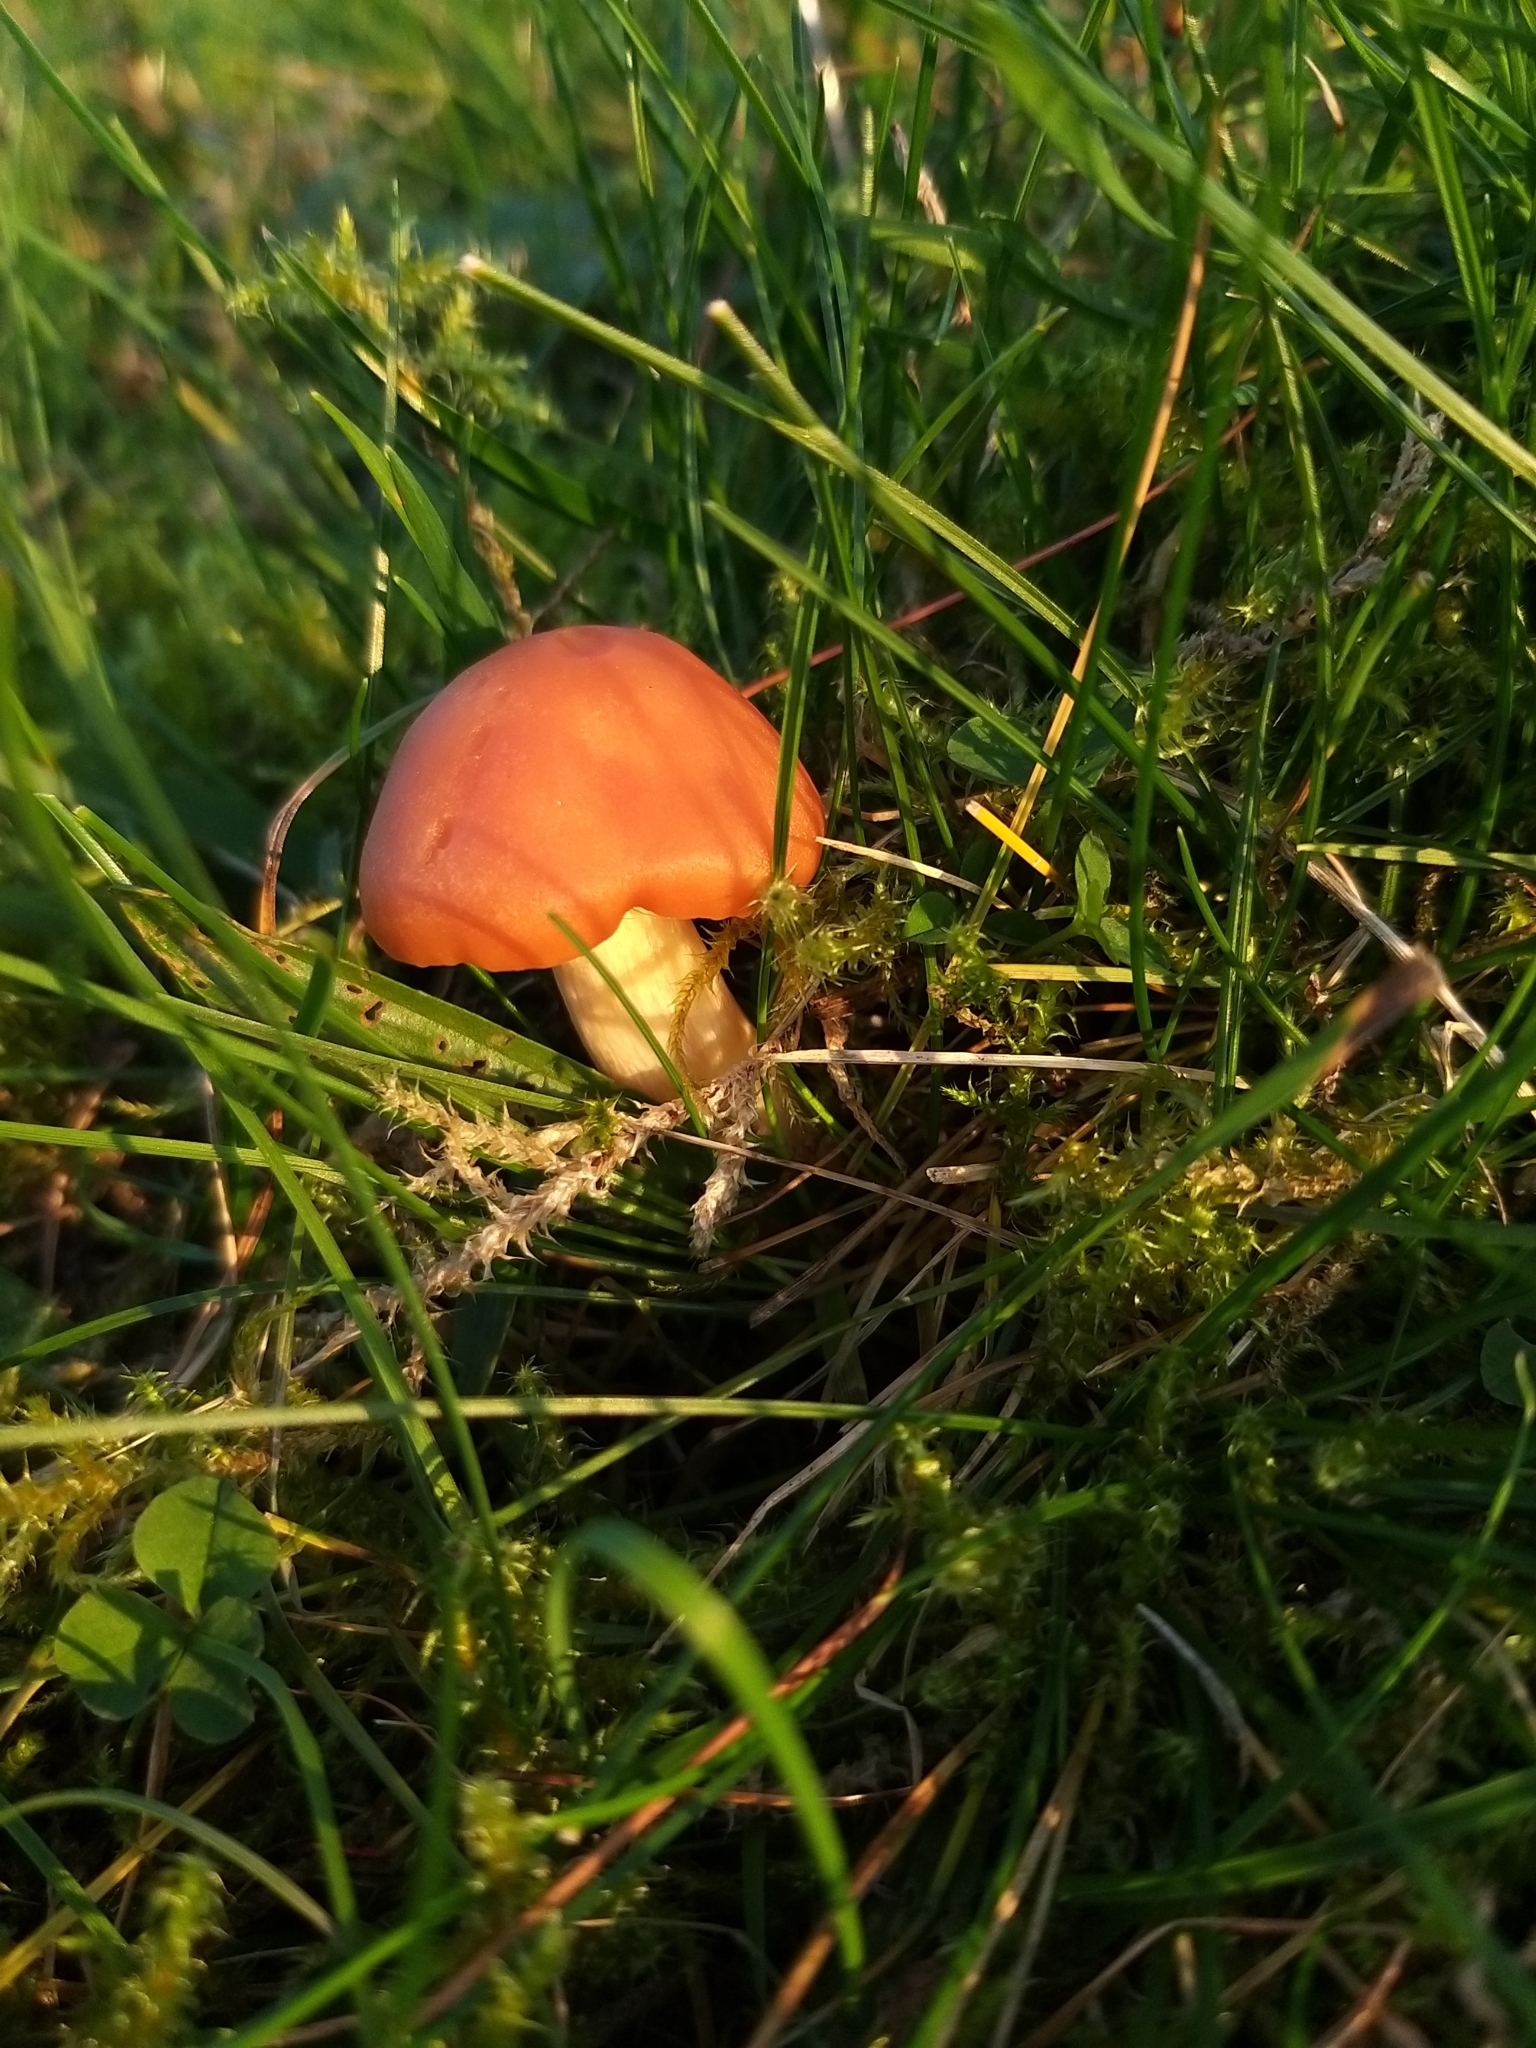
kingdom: Fungi
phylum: Basidiomycota
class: Agaricomycetes
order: Agaricales
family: Hygrophoraceae
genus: Cuphophyllus
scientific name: Cuphophyllus pratensis
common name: Meadow waxcap
